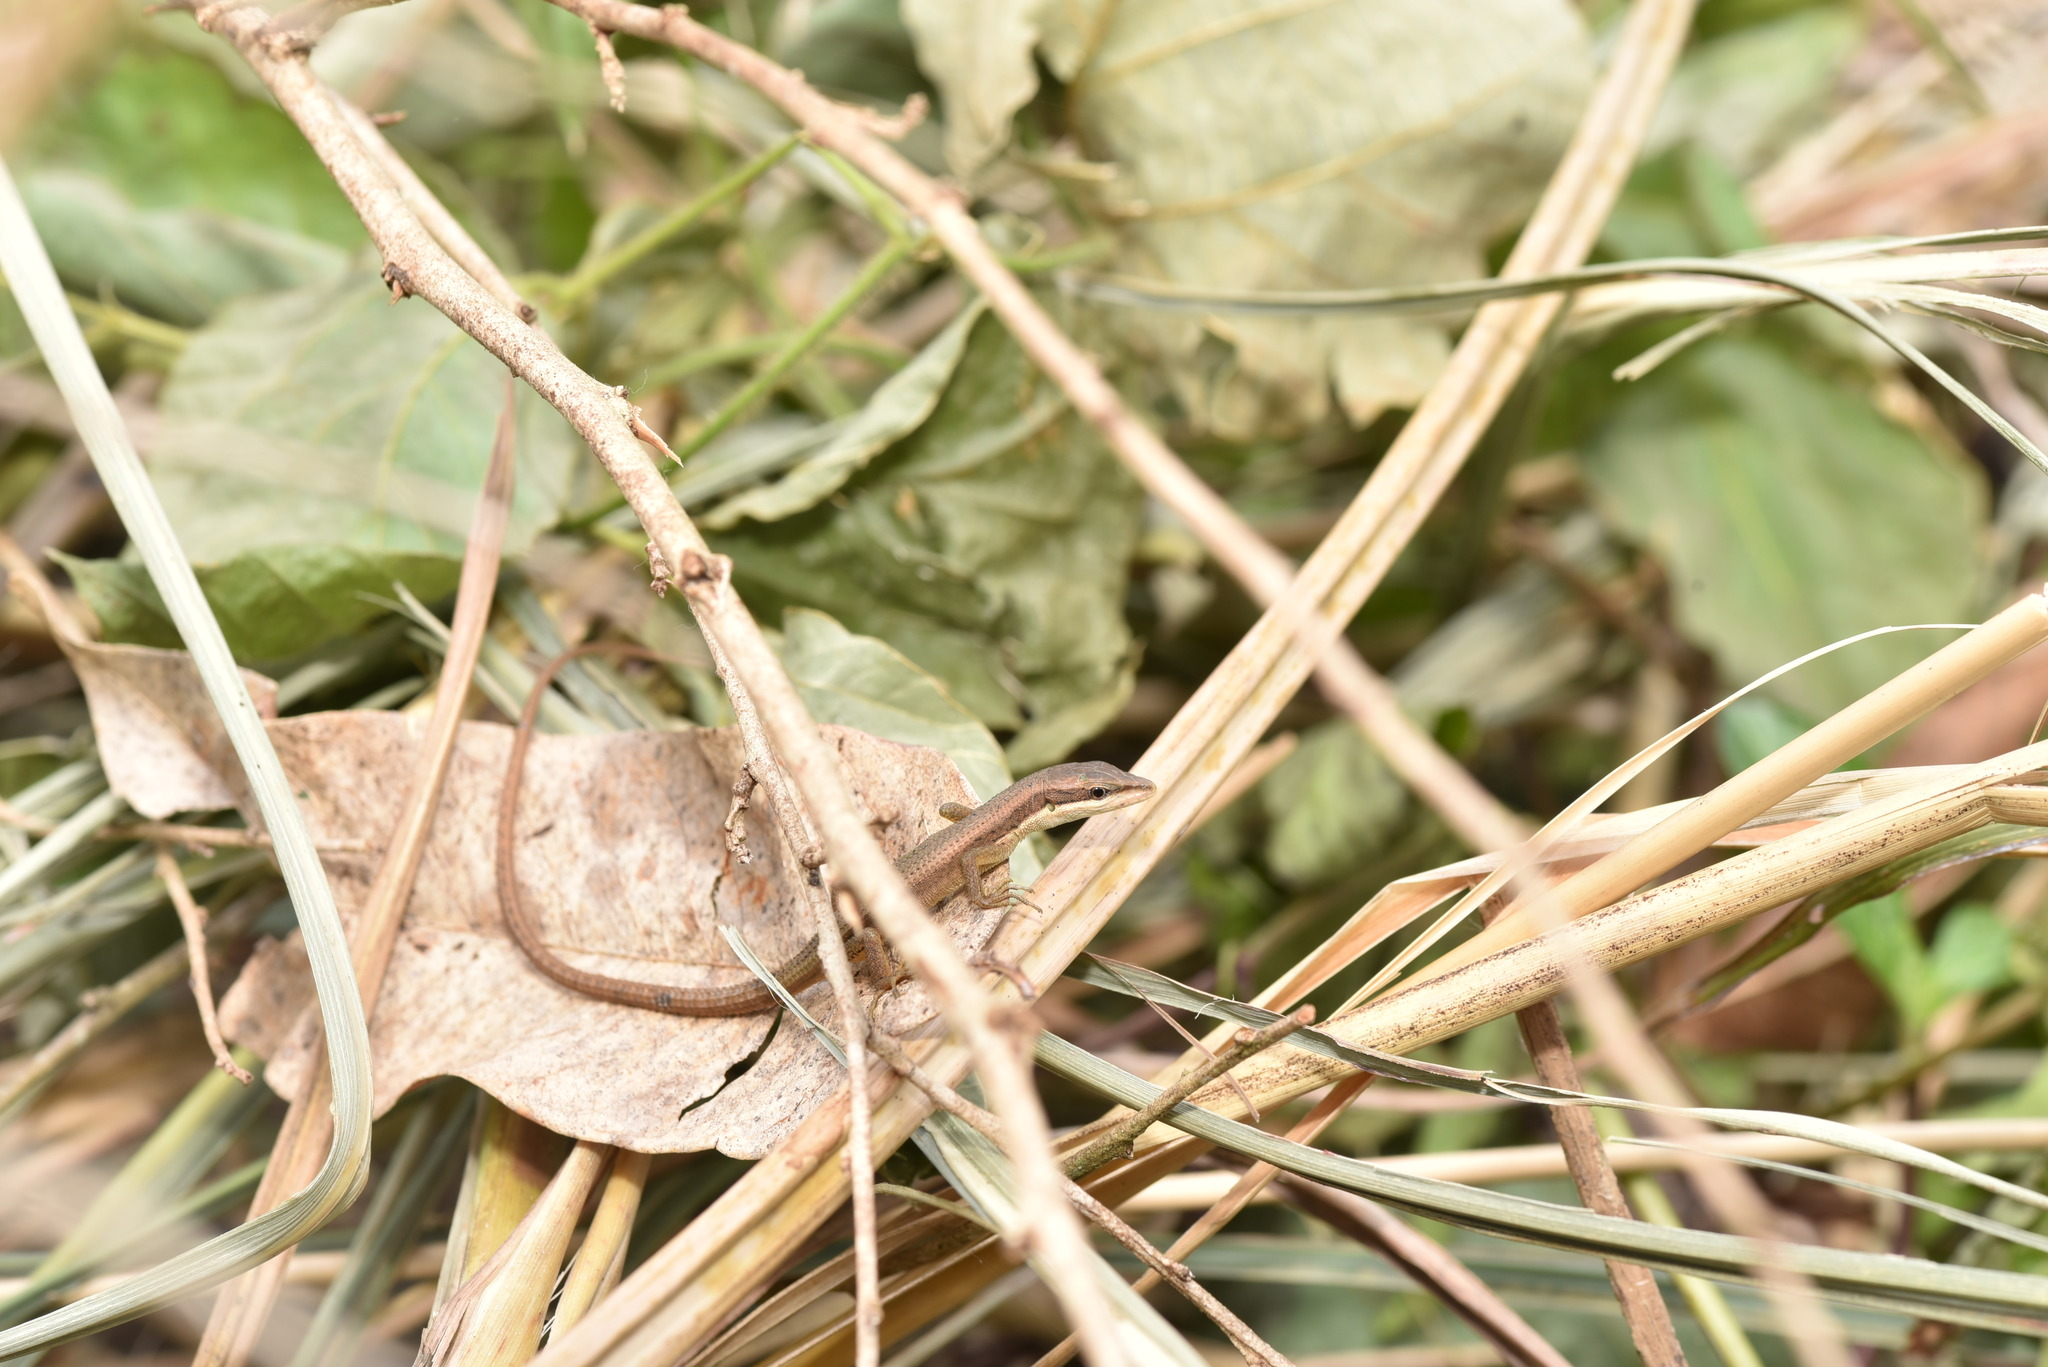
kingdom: Animalia
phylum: Chordata
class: Squamata
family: Lacertidae
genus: Takydromus
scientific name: Takydromus kuehnei
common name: Kuhne’s grass lizard
